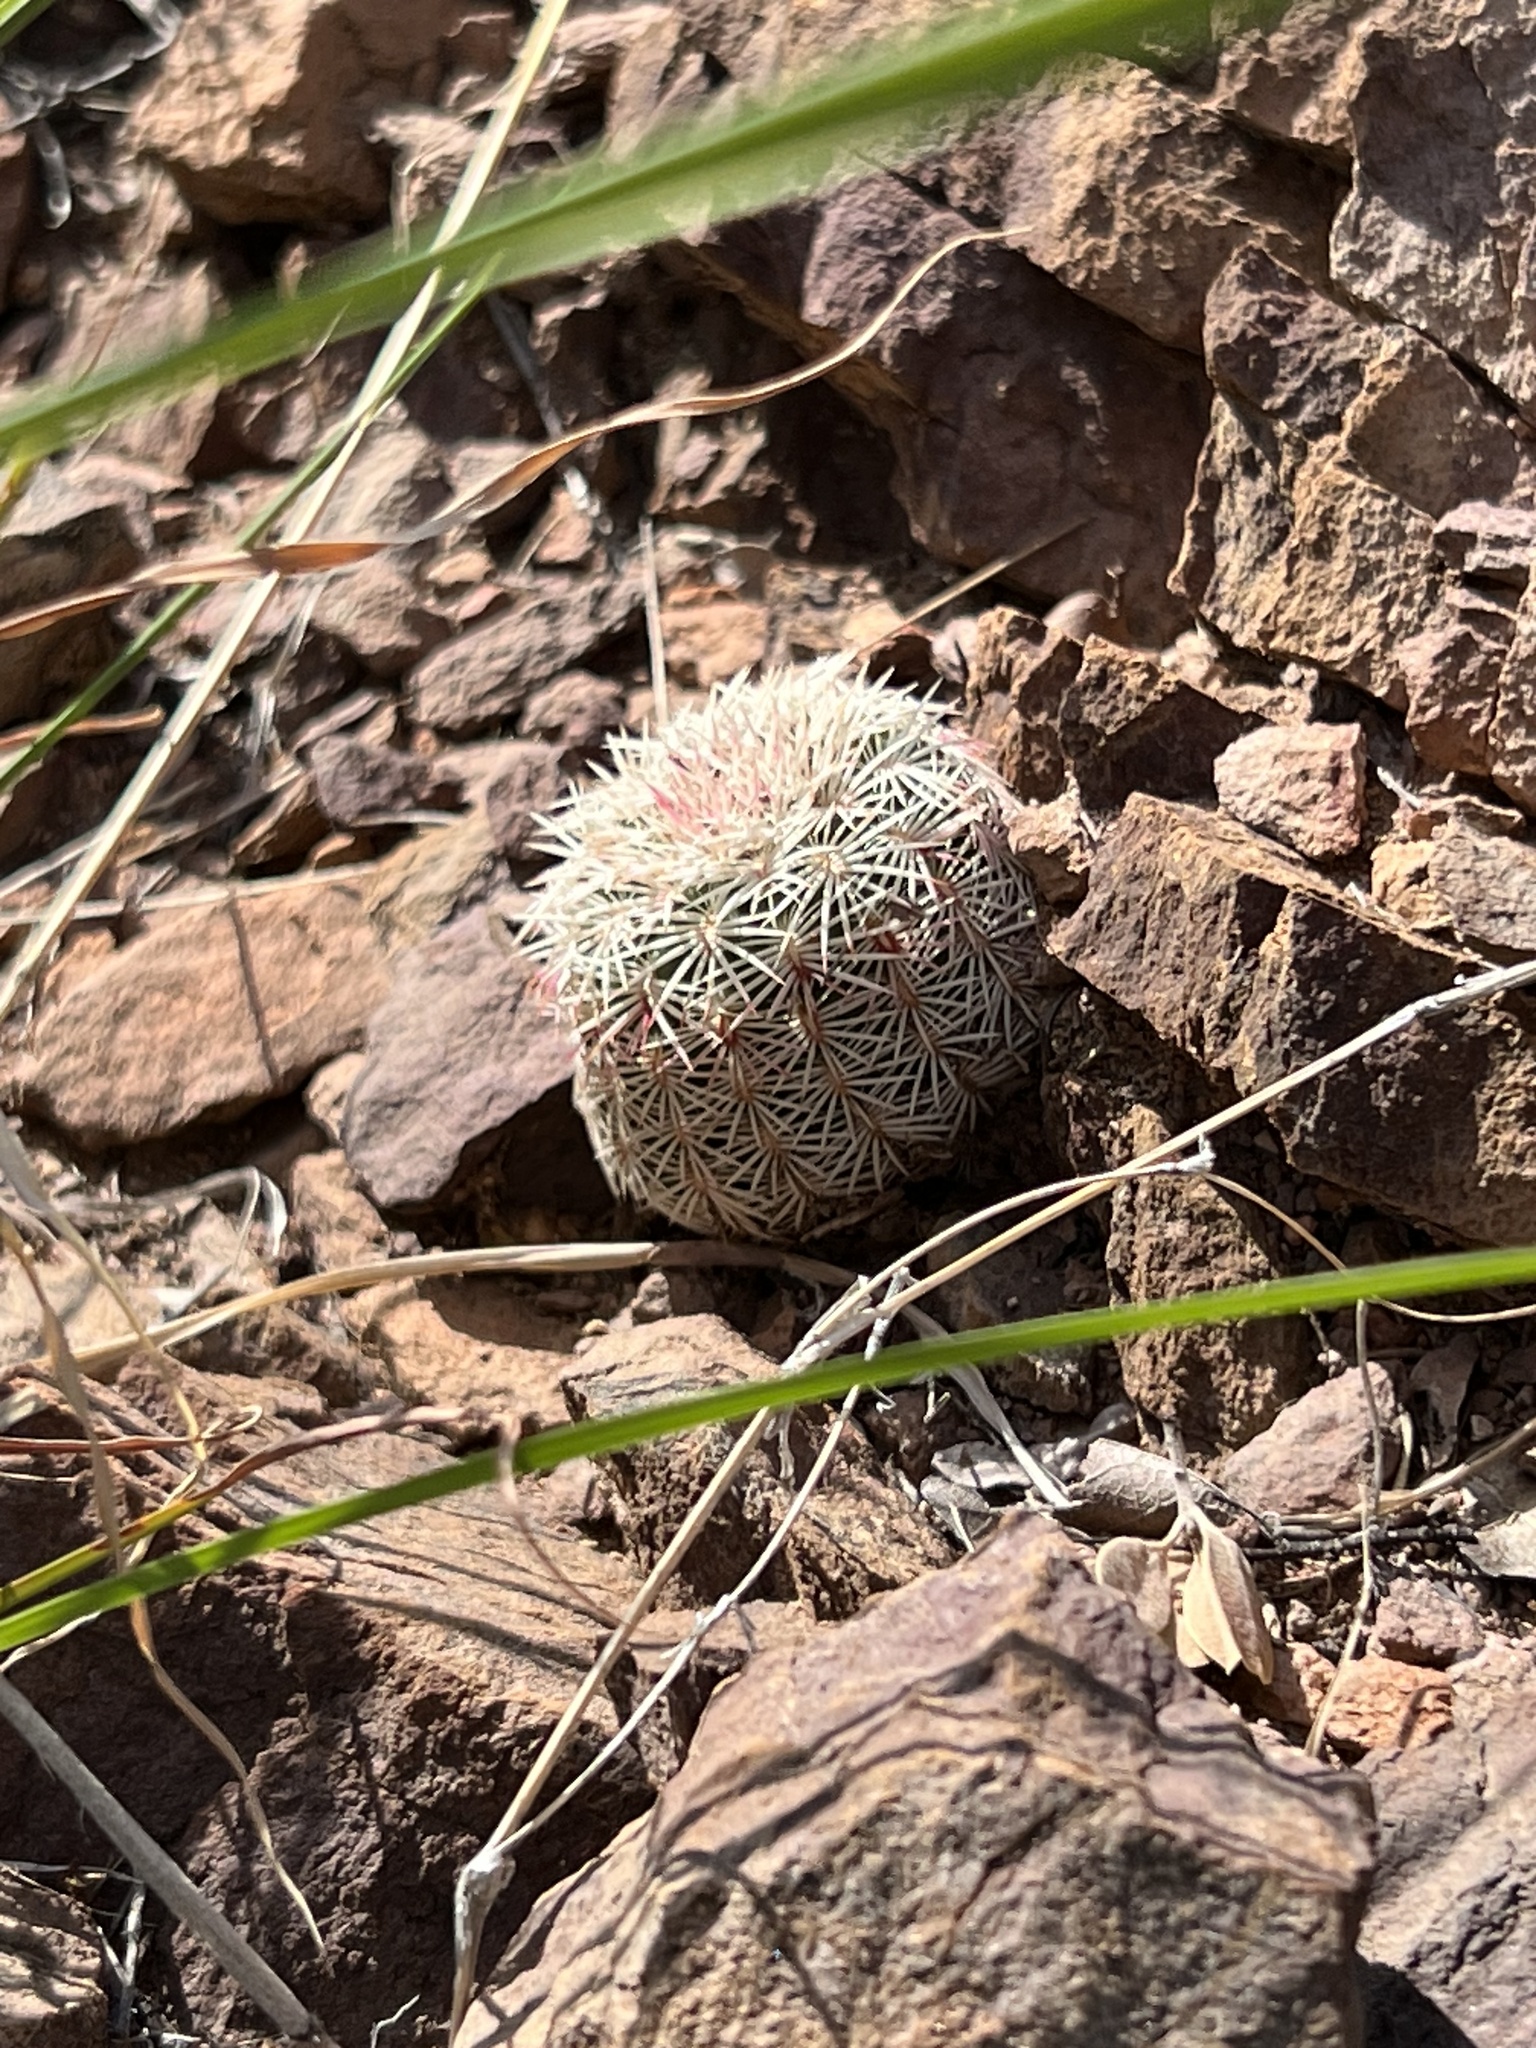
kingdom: Plantae
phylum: Tracheophyta
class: Magnoliopsida
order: Caryophyllales
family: Cactaceae
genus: Echinocereus
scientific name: Echinocereus rigidissimus
